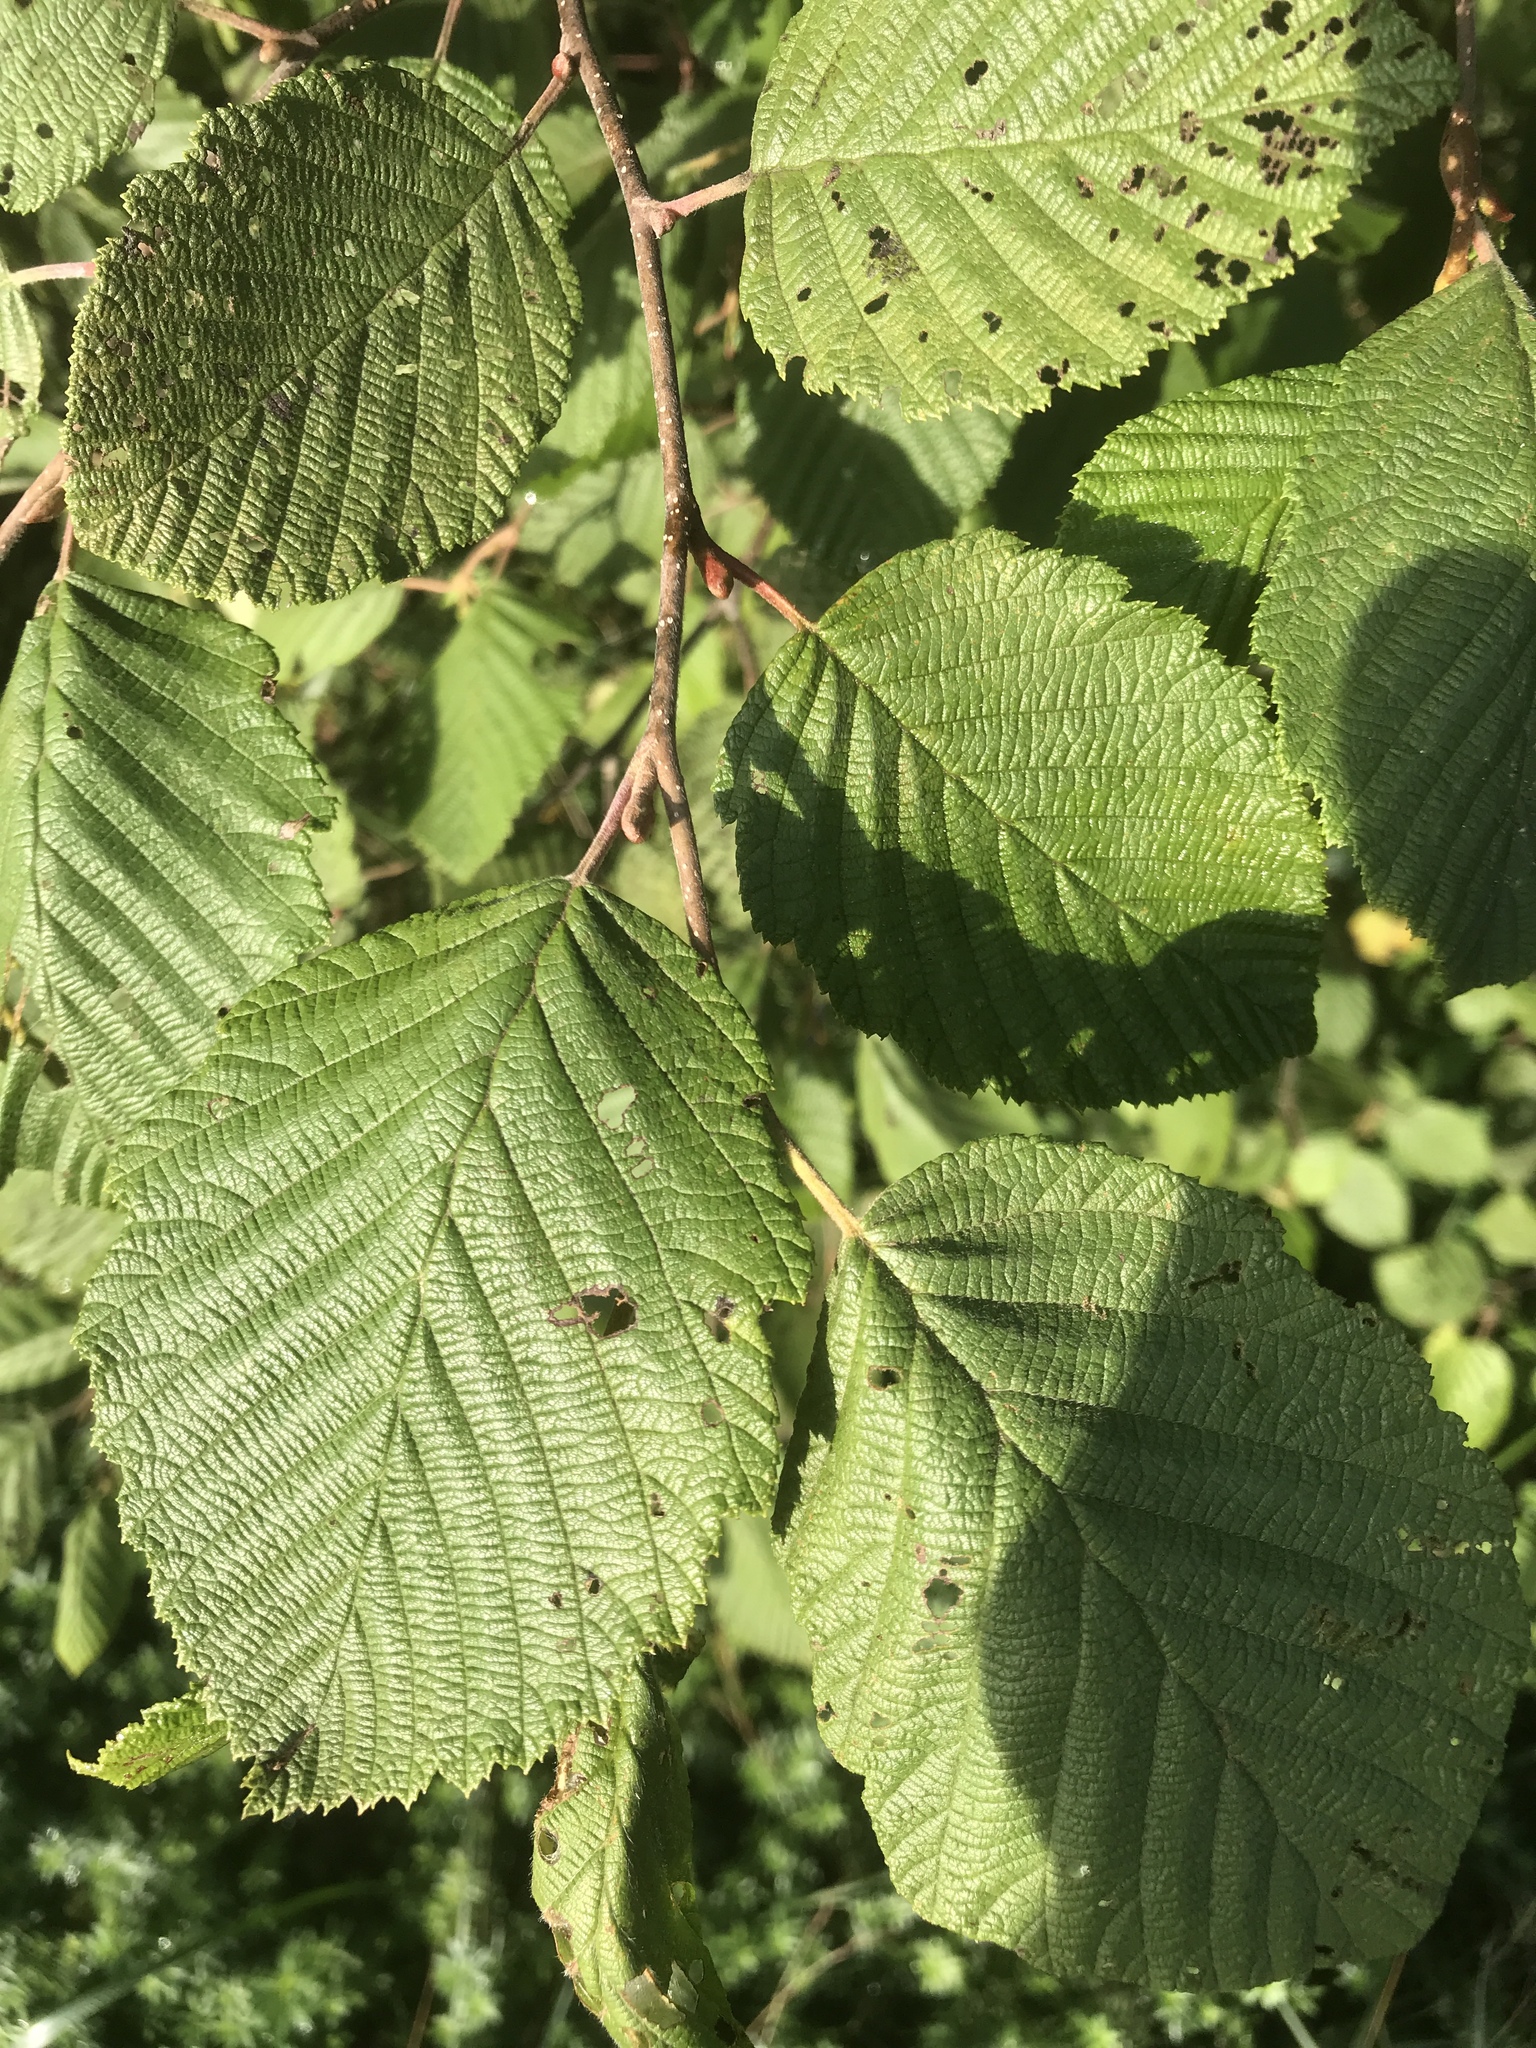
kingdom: Plantae
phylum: Tracheophyta
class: Magnoliopsida
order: Fagales
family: Betulaceae
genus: Alnus
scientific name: Alnus incana
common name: Grey alder
